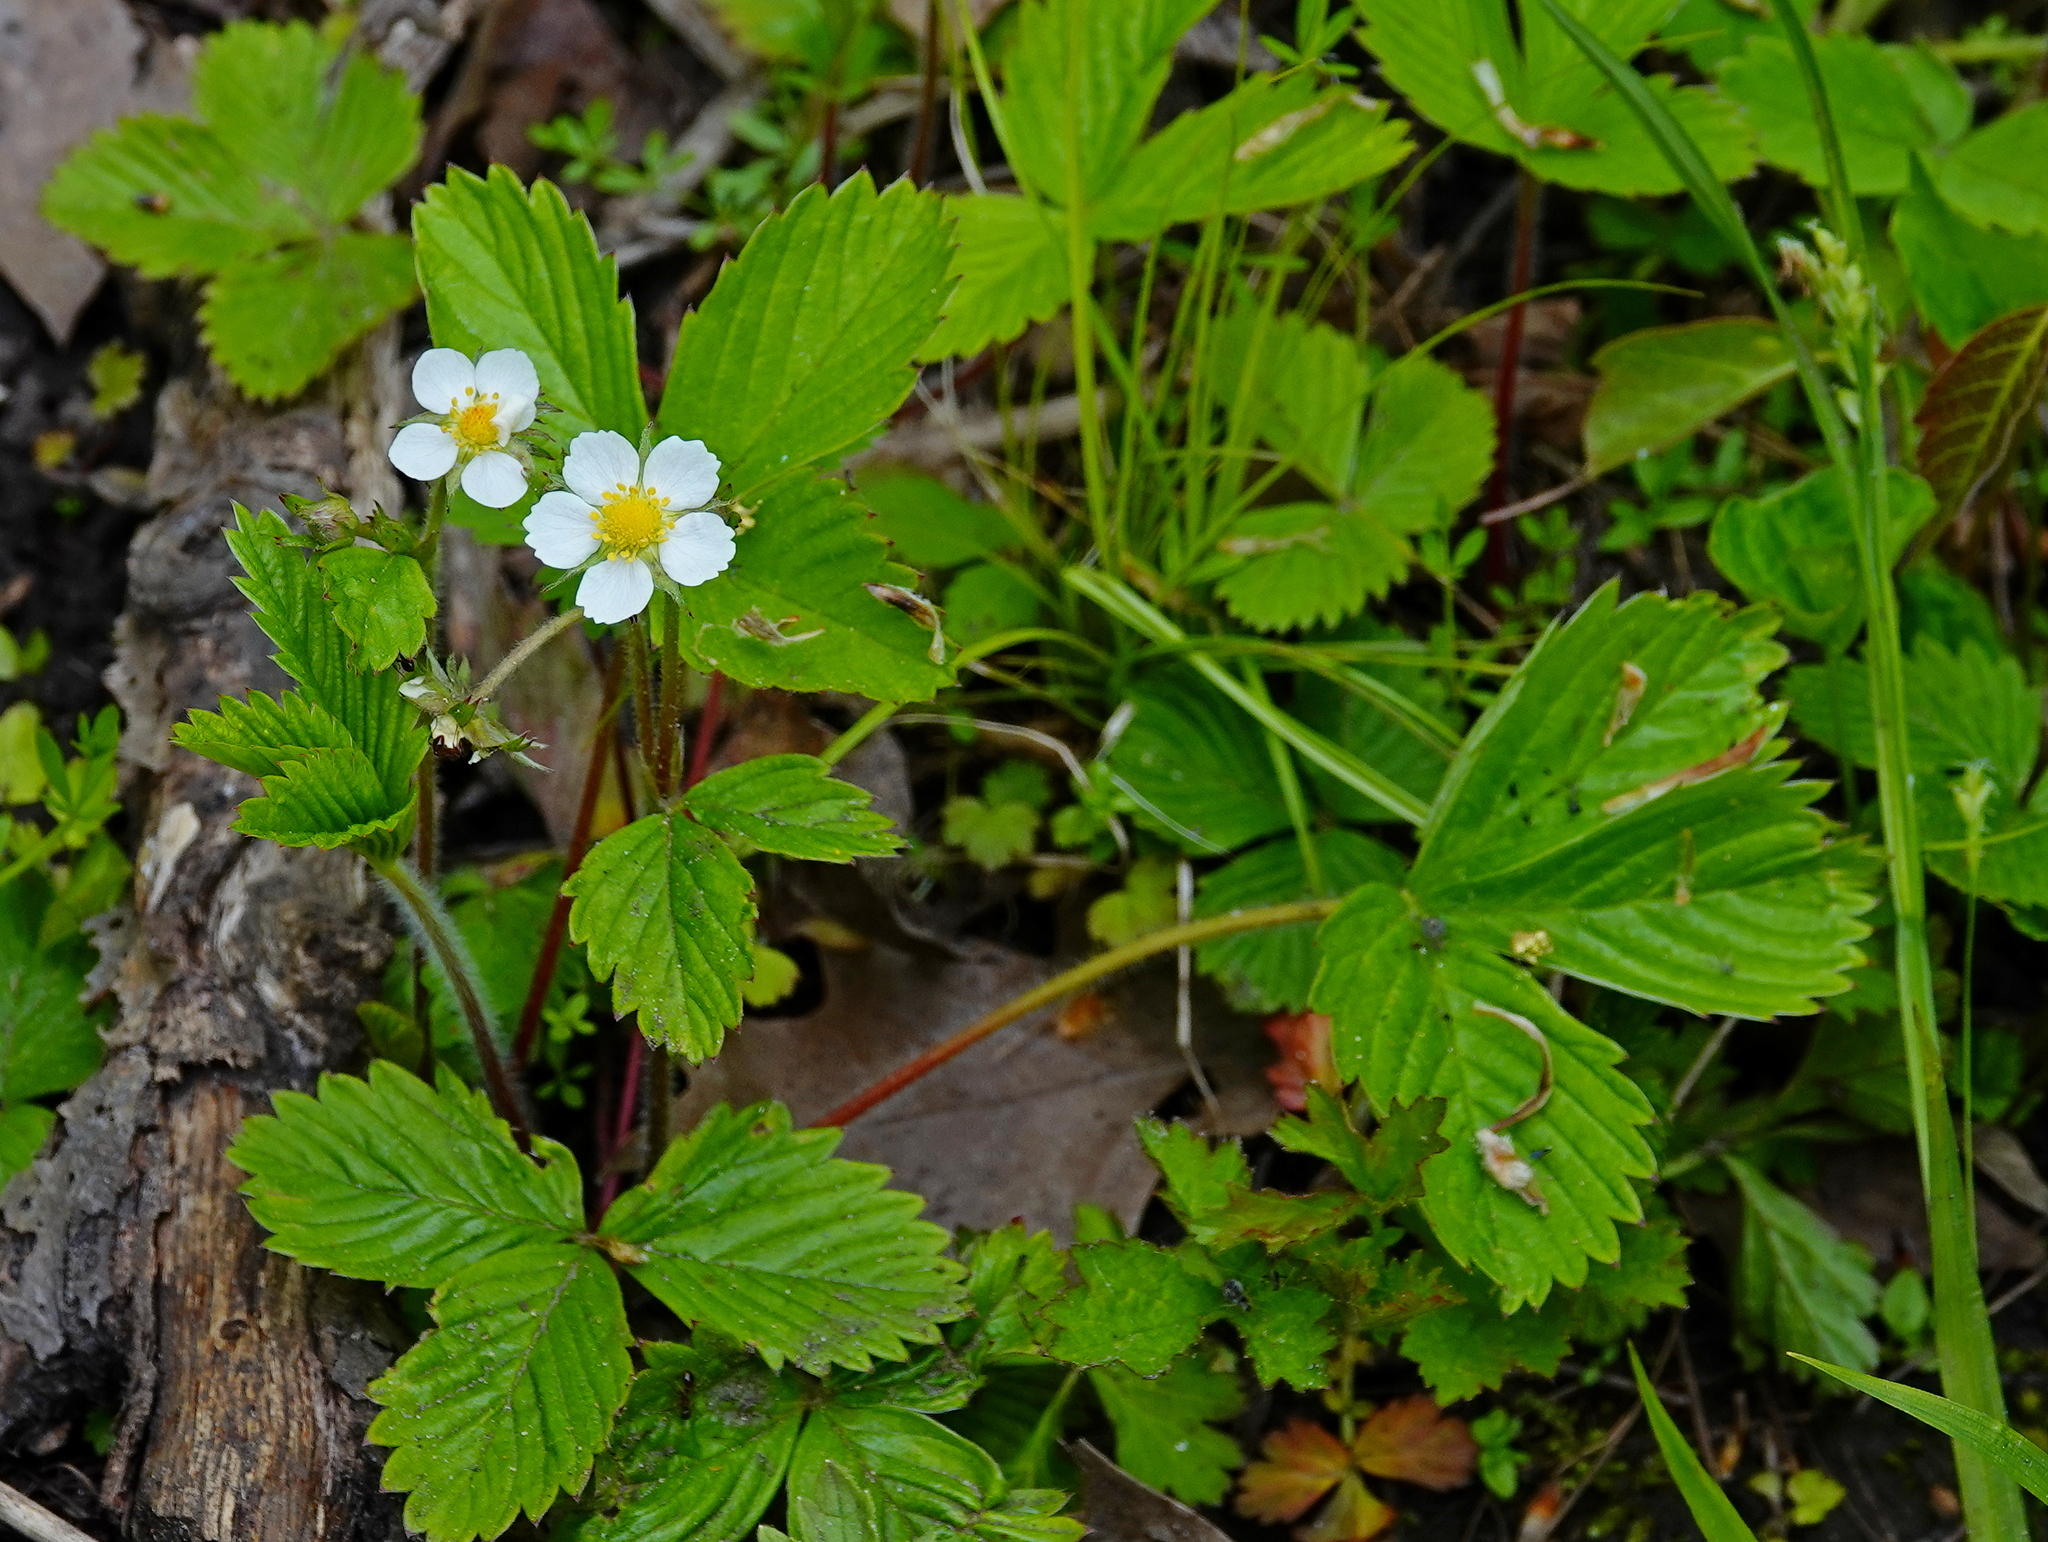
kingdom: Plantae
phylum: Tracheophyta
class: Magnoliopsida
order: Rosales
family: Rosaceae
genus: Fragaria
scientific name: Fragaria vesca
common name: Wild strawberry
